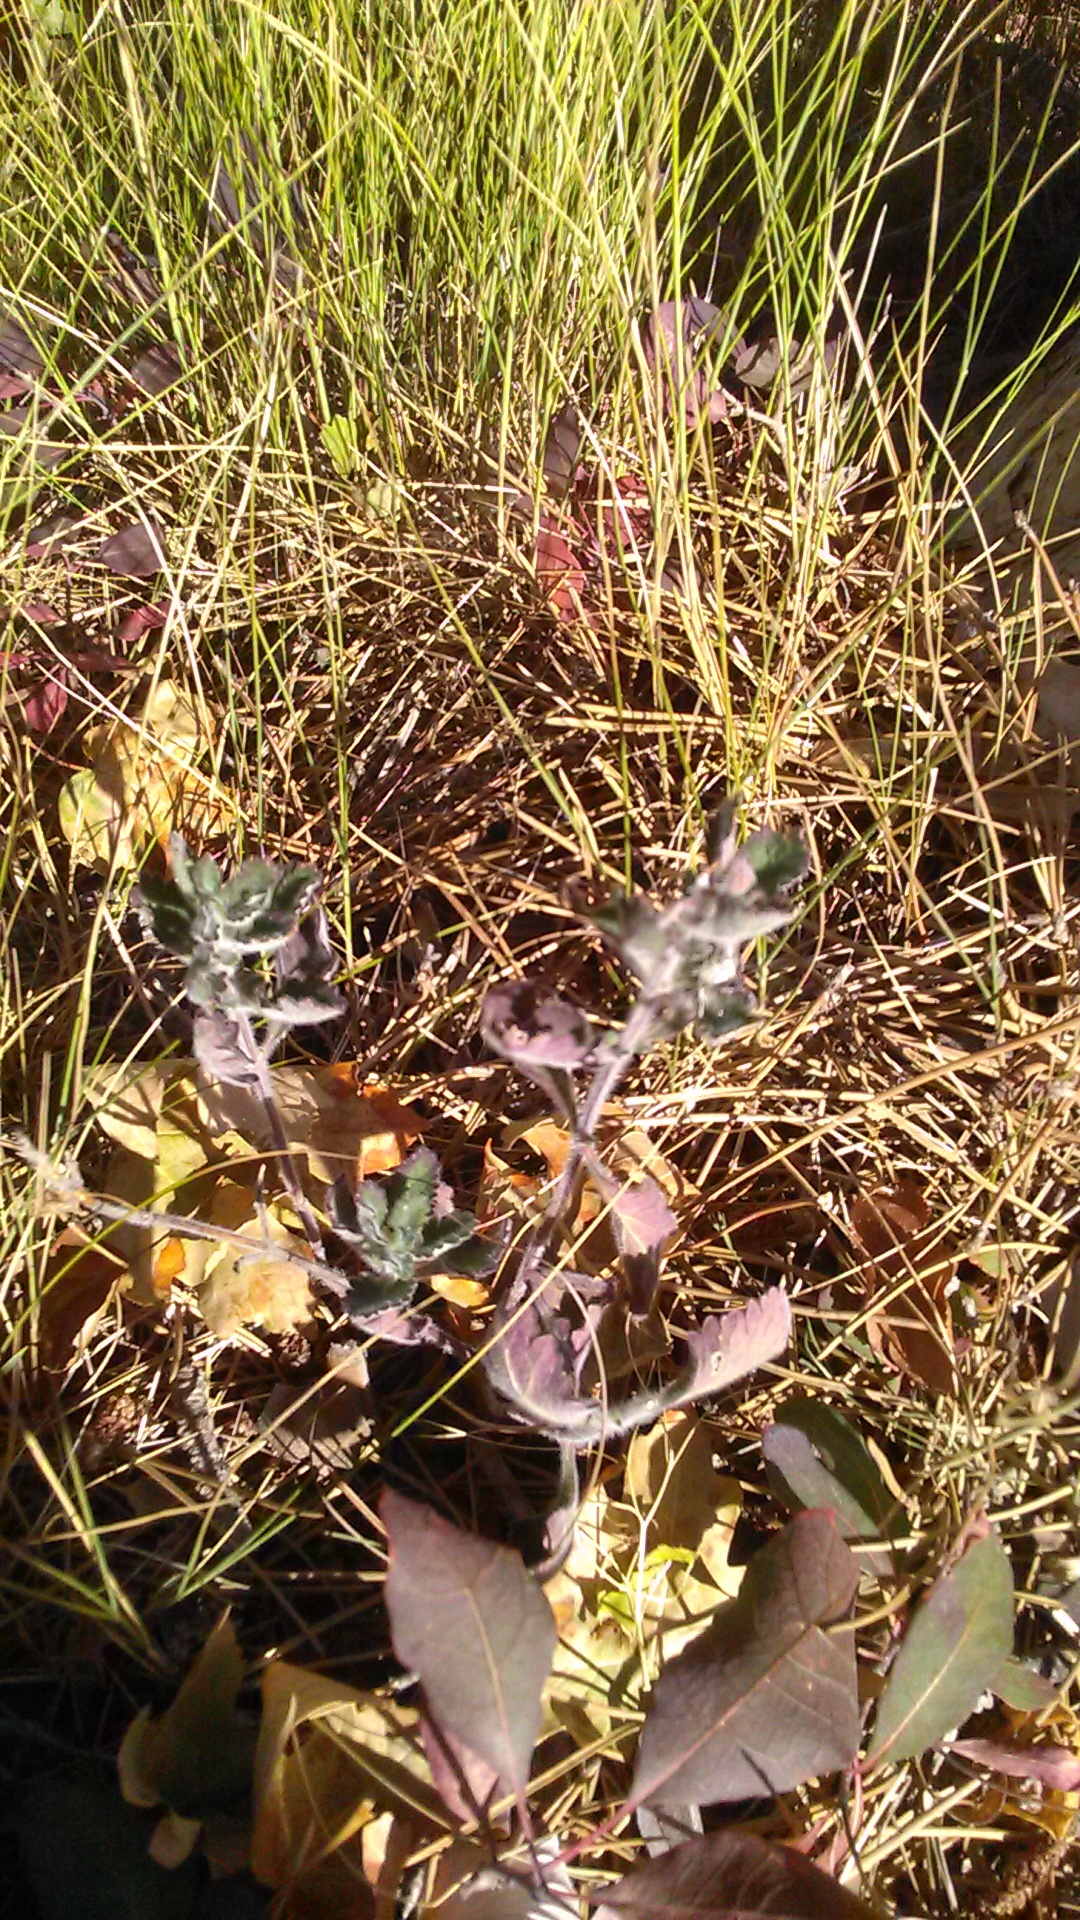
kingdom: Plantae
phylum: Tracheophyta
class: Magnoliopsida
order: Lamiales
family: Lamiaceae
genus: Teucrium
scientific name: Teucrium chamaedrys
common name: Wall germander
